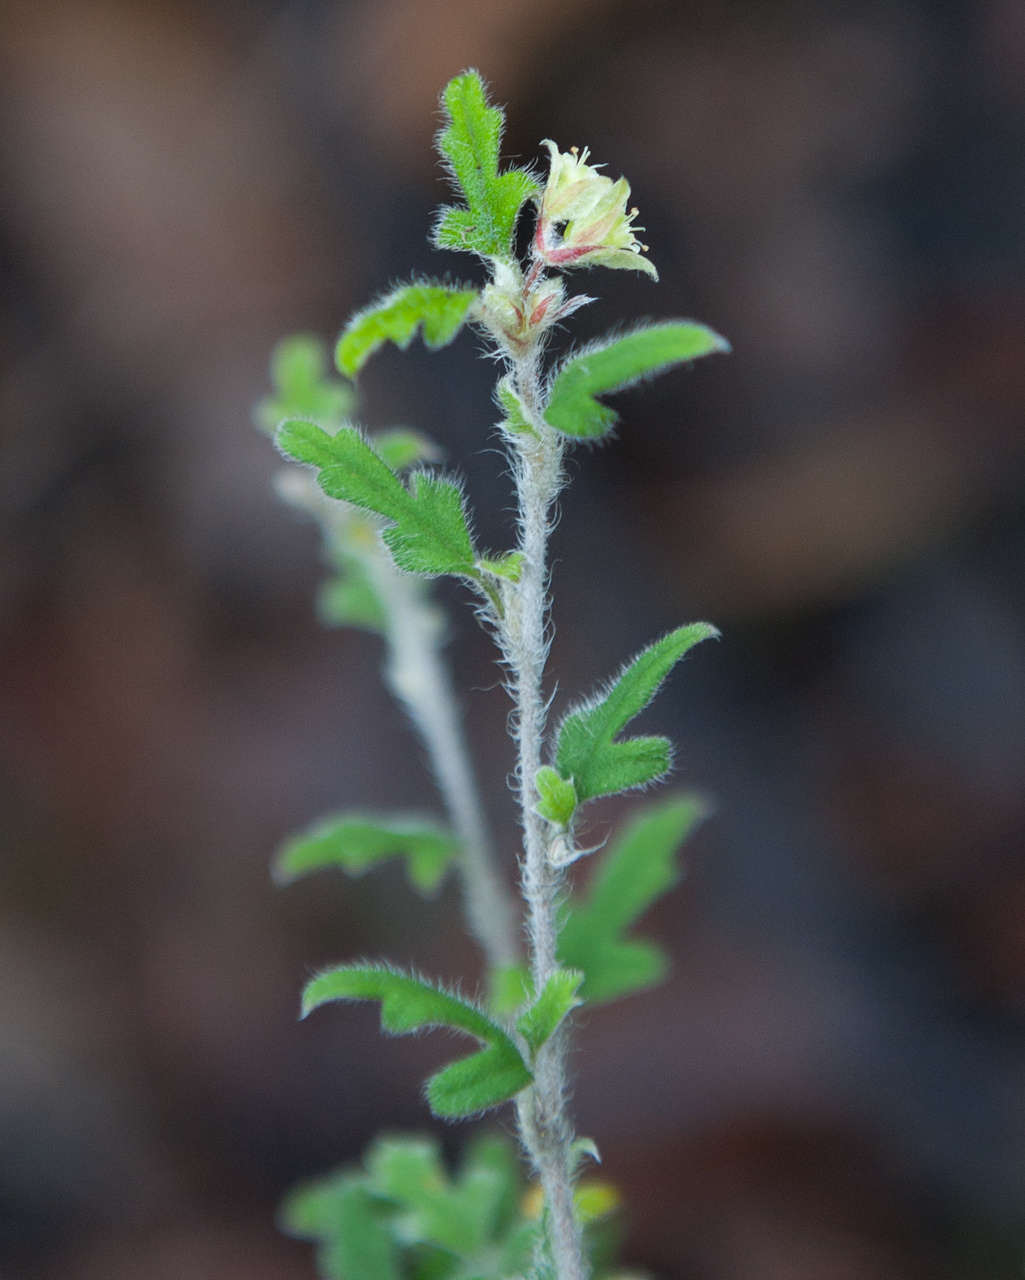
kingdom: Plantae
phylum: Tracheophyta
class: Magnoliopsida
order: Apiales
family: Apiaceae
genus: Xanthosia
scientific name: Xanthosia pilosa
